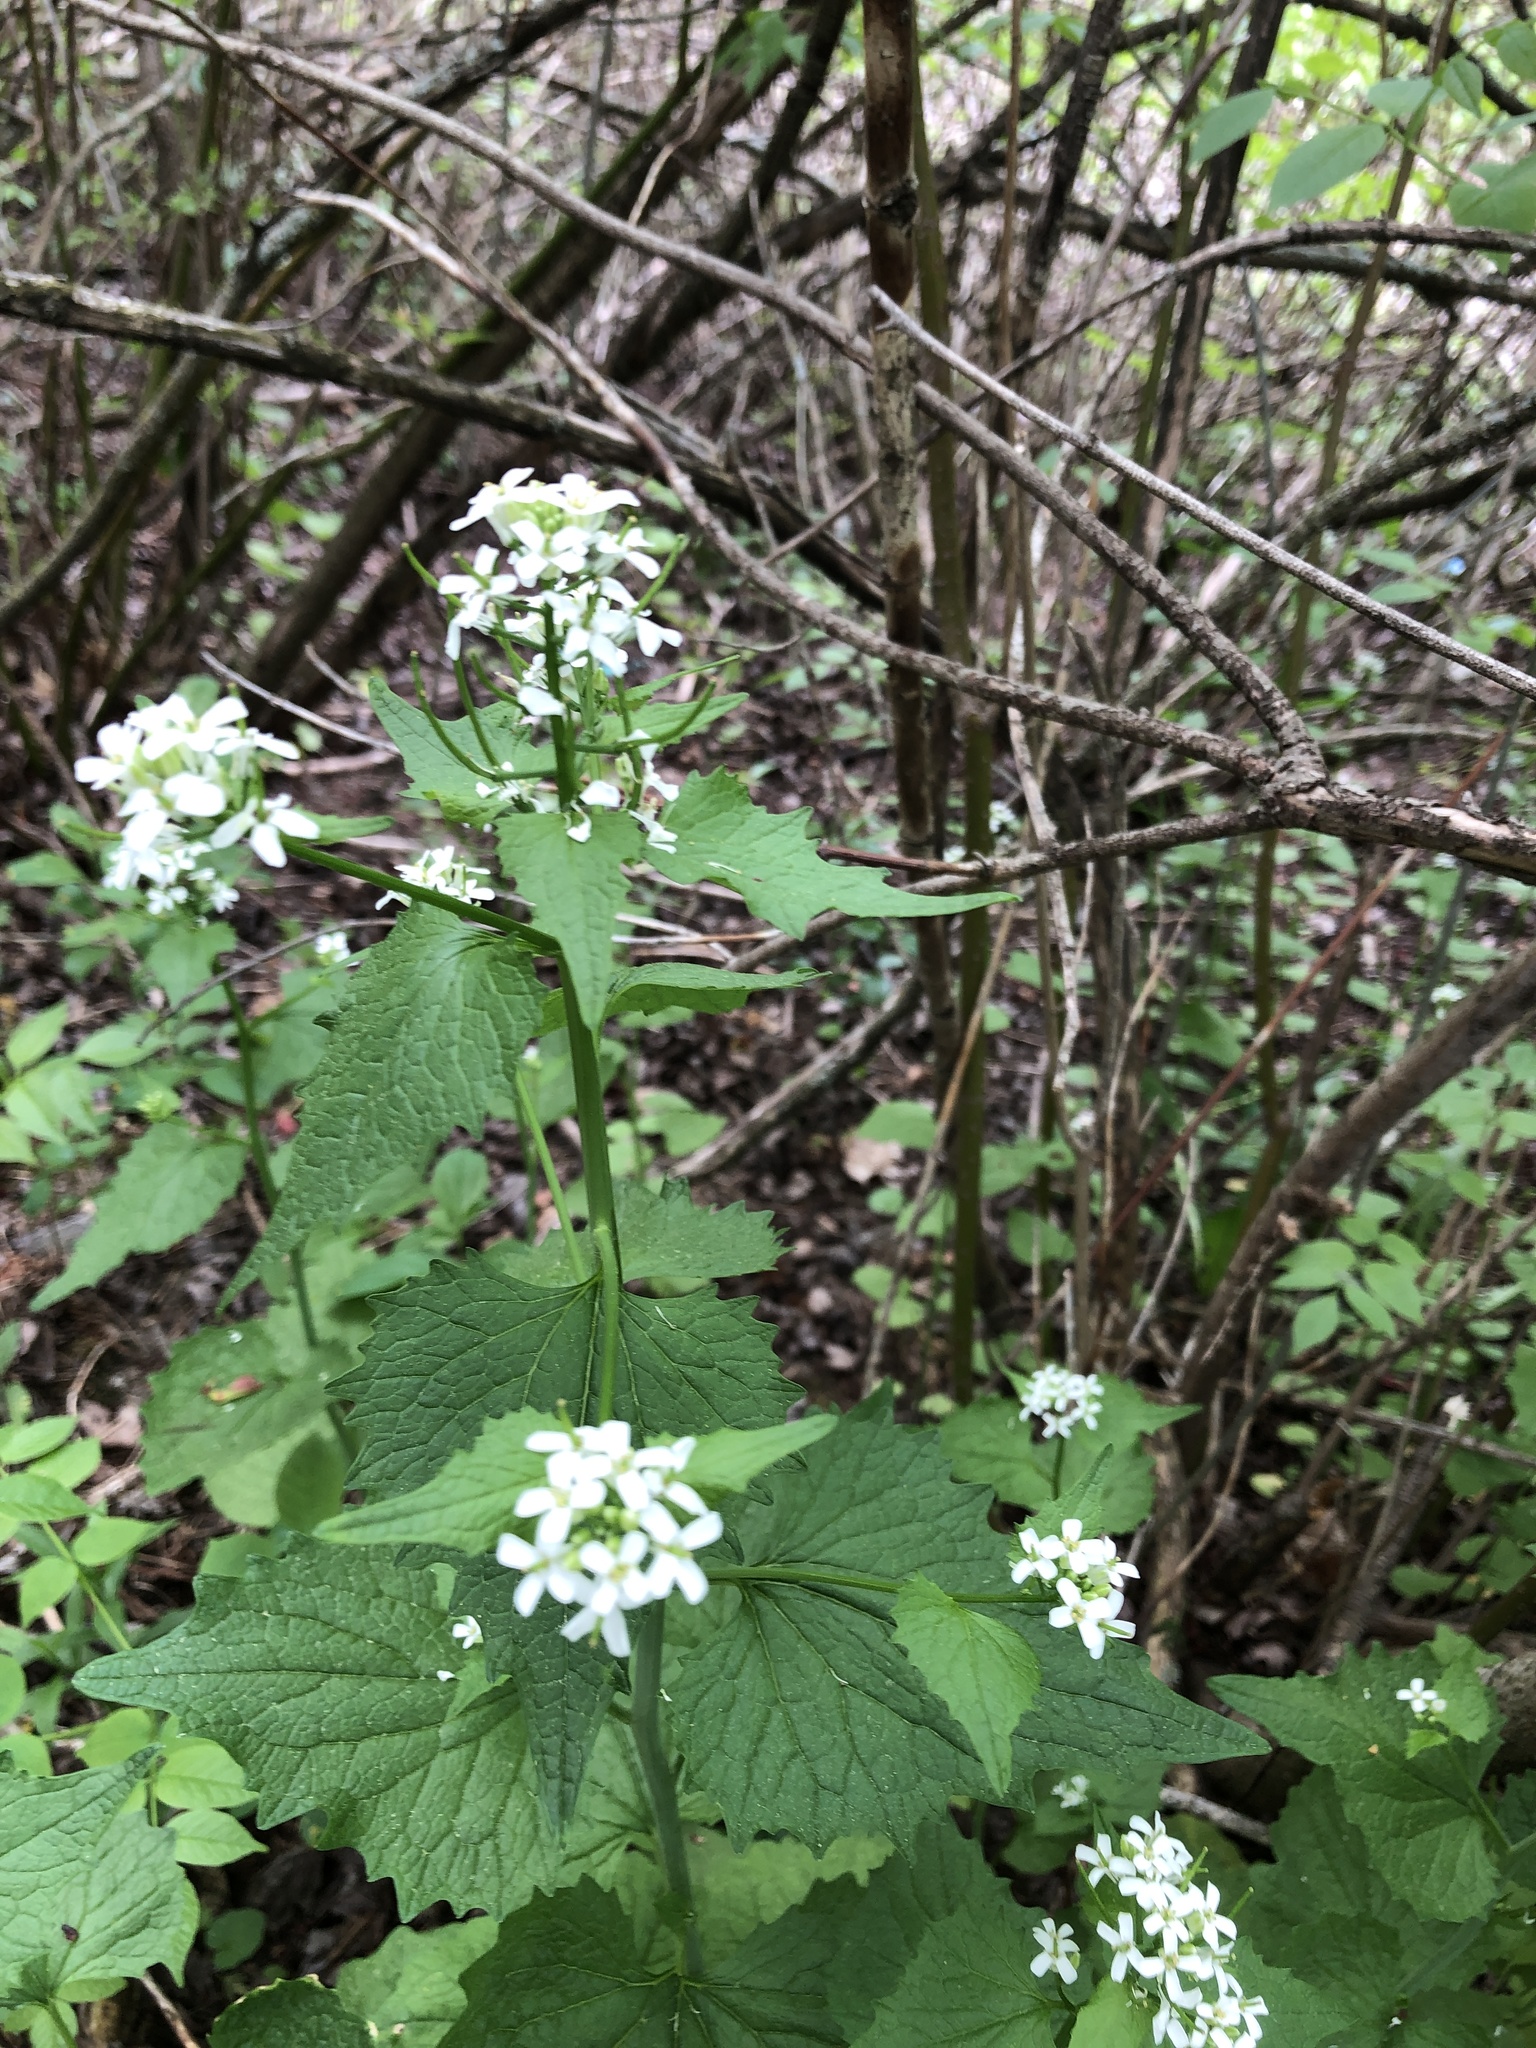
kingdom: Plantae
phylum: Tracheophyta
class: Magnoliopsida
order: Brassicales
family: Brassicaceae
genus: Alliaria
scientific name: Alliaria petiolata
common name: Garlic mustard
